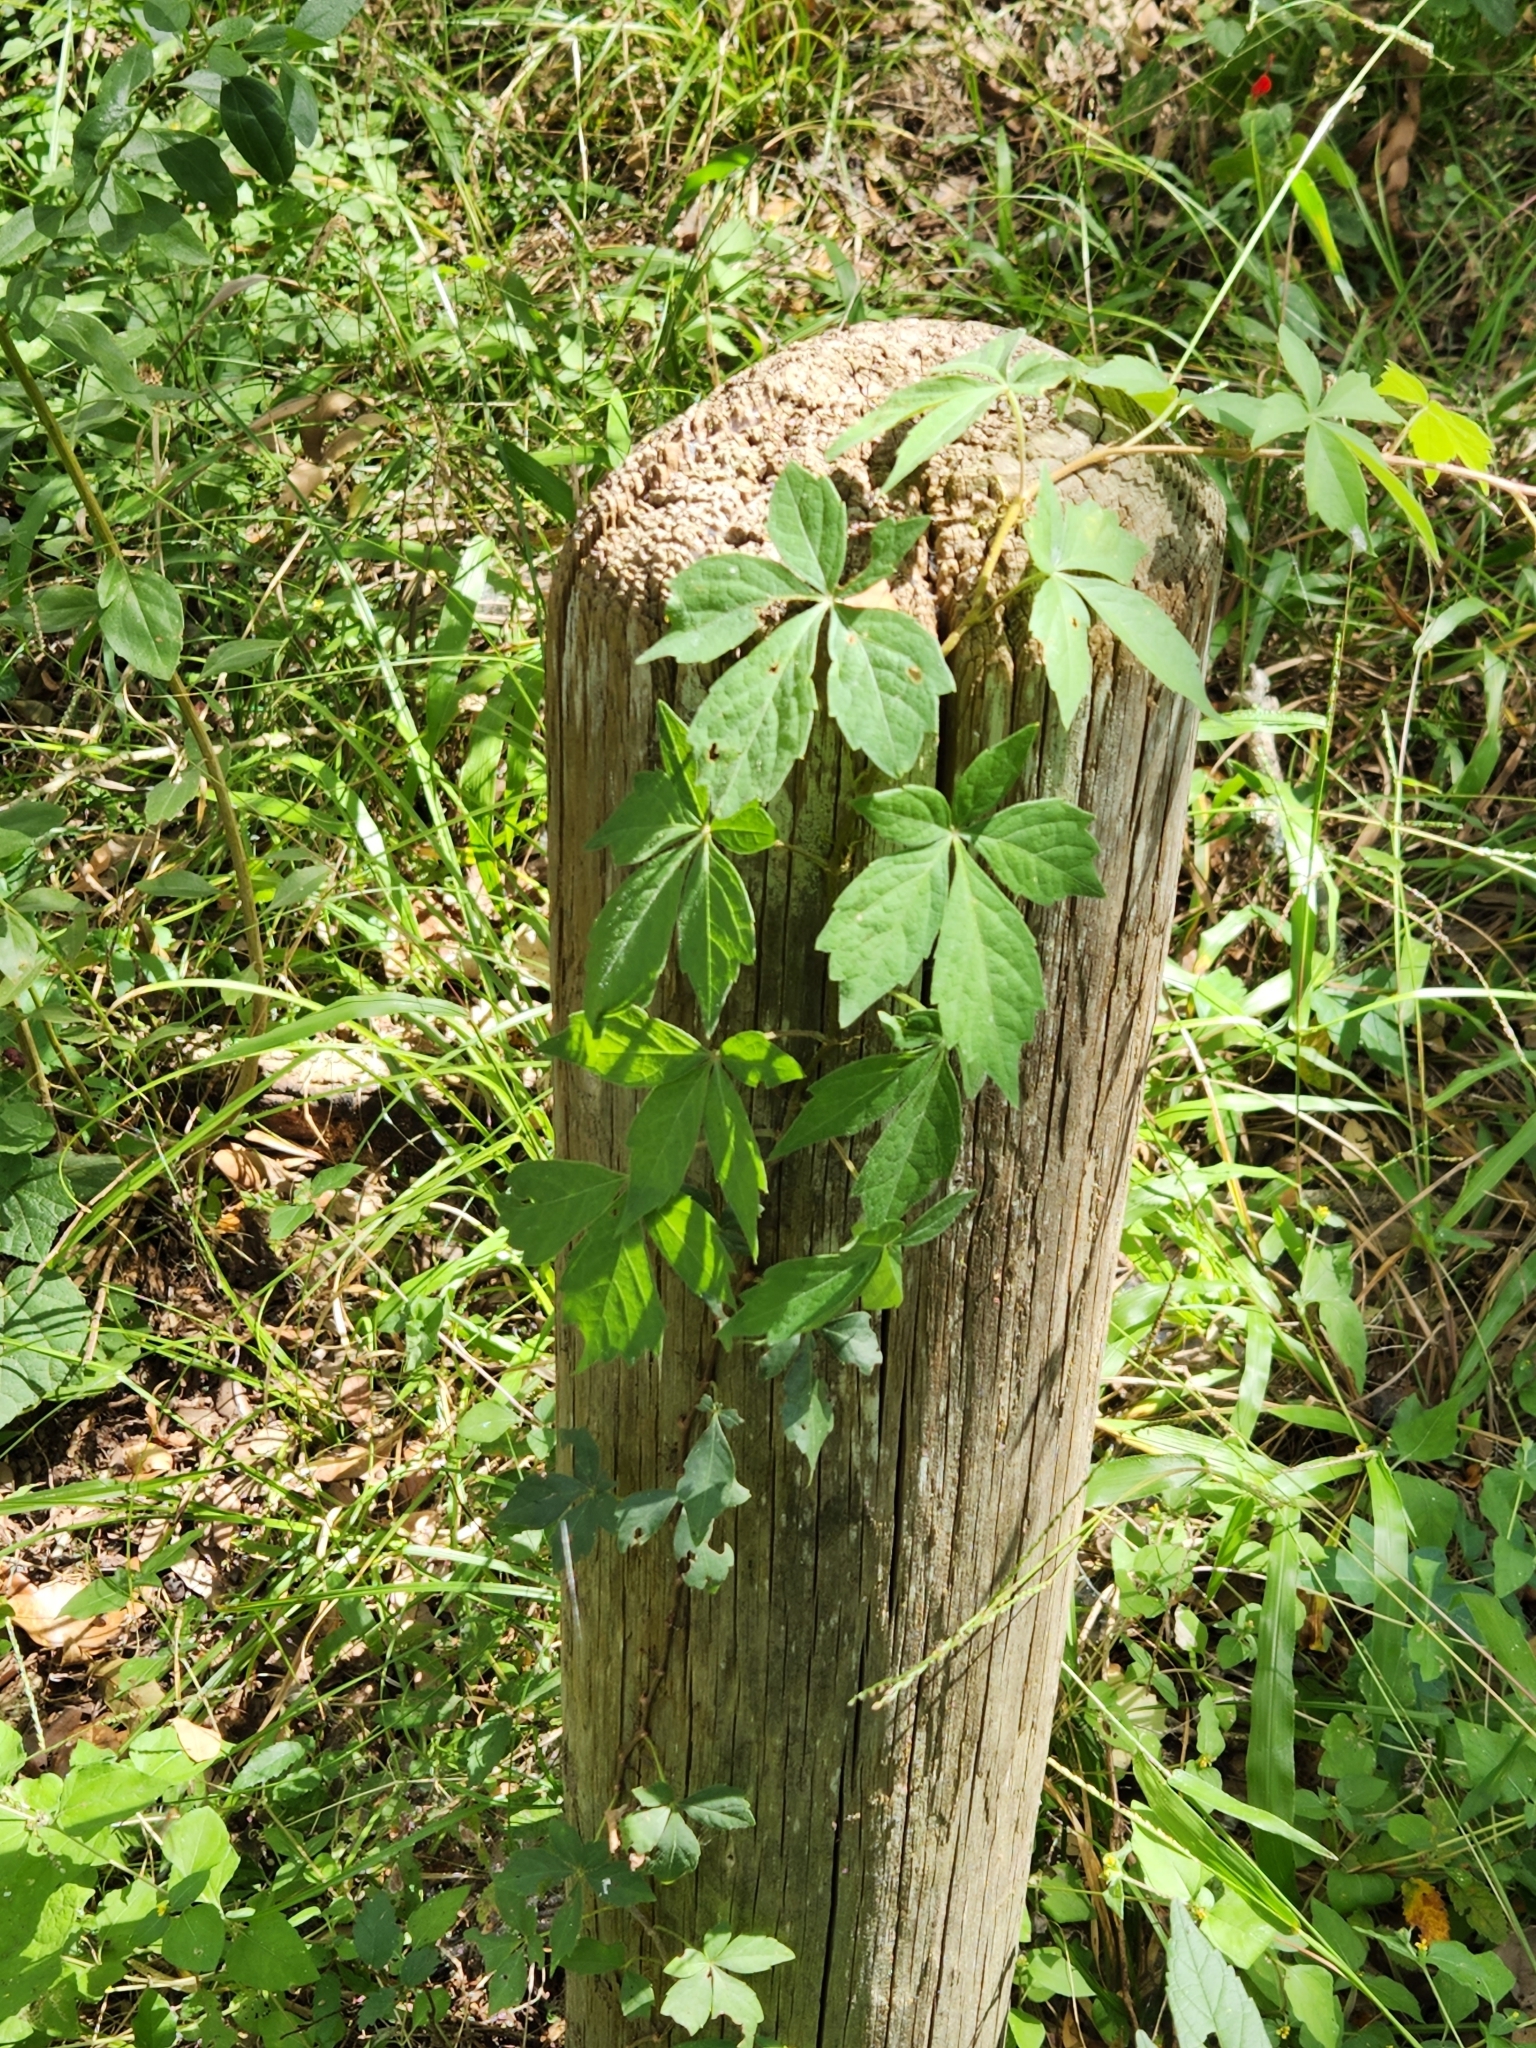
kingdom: Plantae
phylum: Tracheophyta
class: Magnoliopsida
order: Vitales
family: Vitaceae
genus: Parthenocissus
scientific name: Parthenocissus quinquefolia
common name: Virginia-creeper
